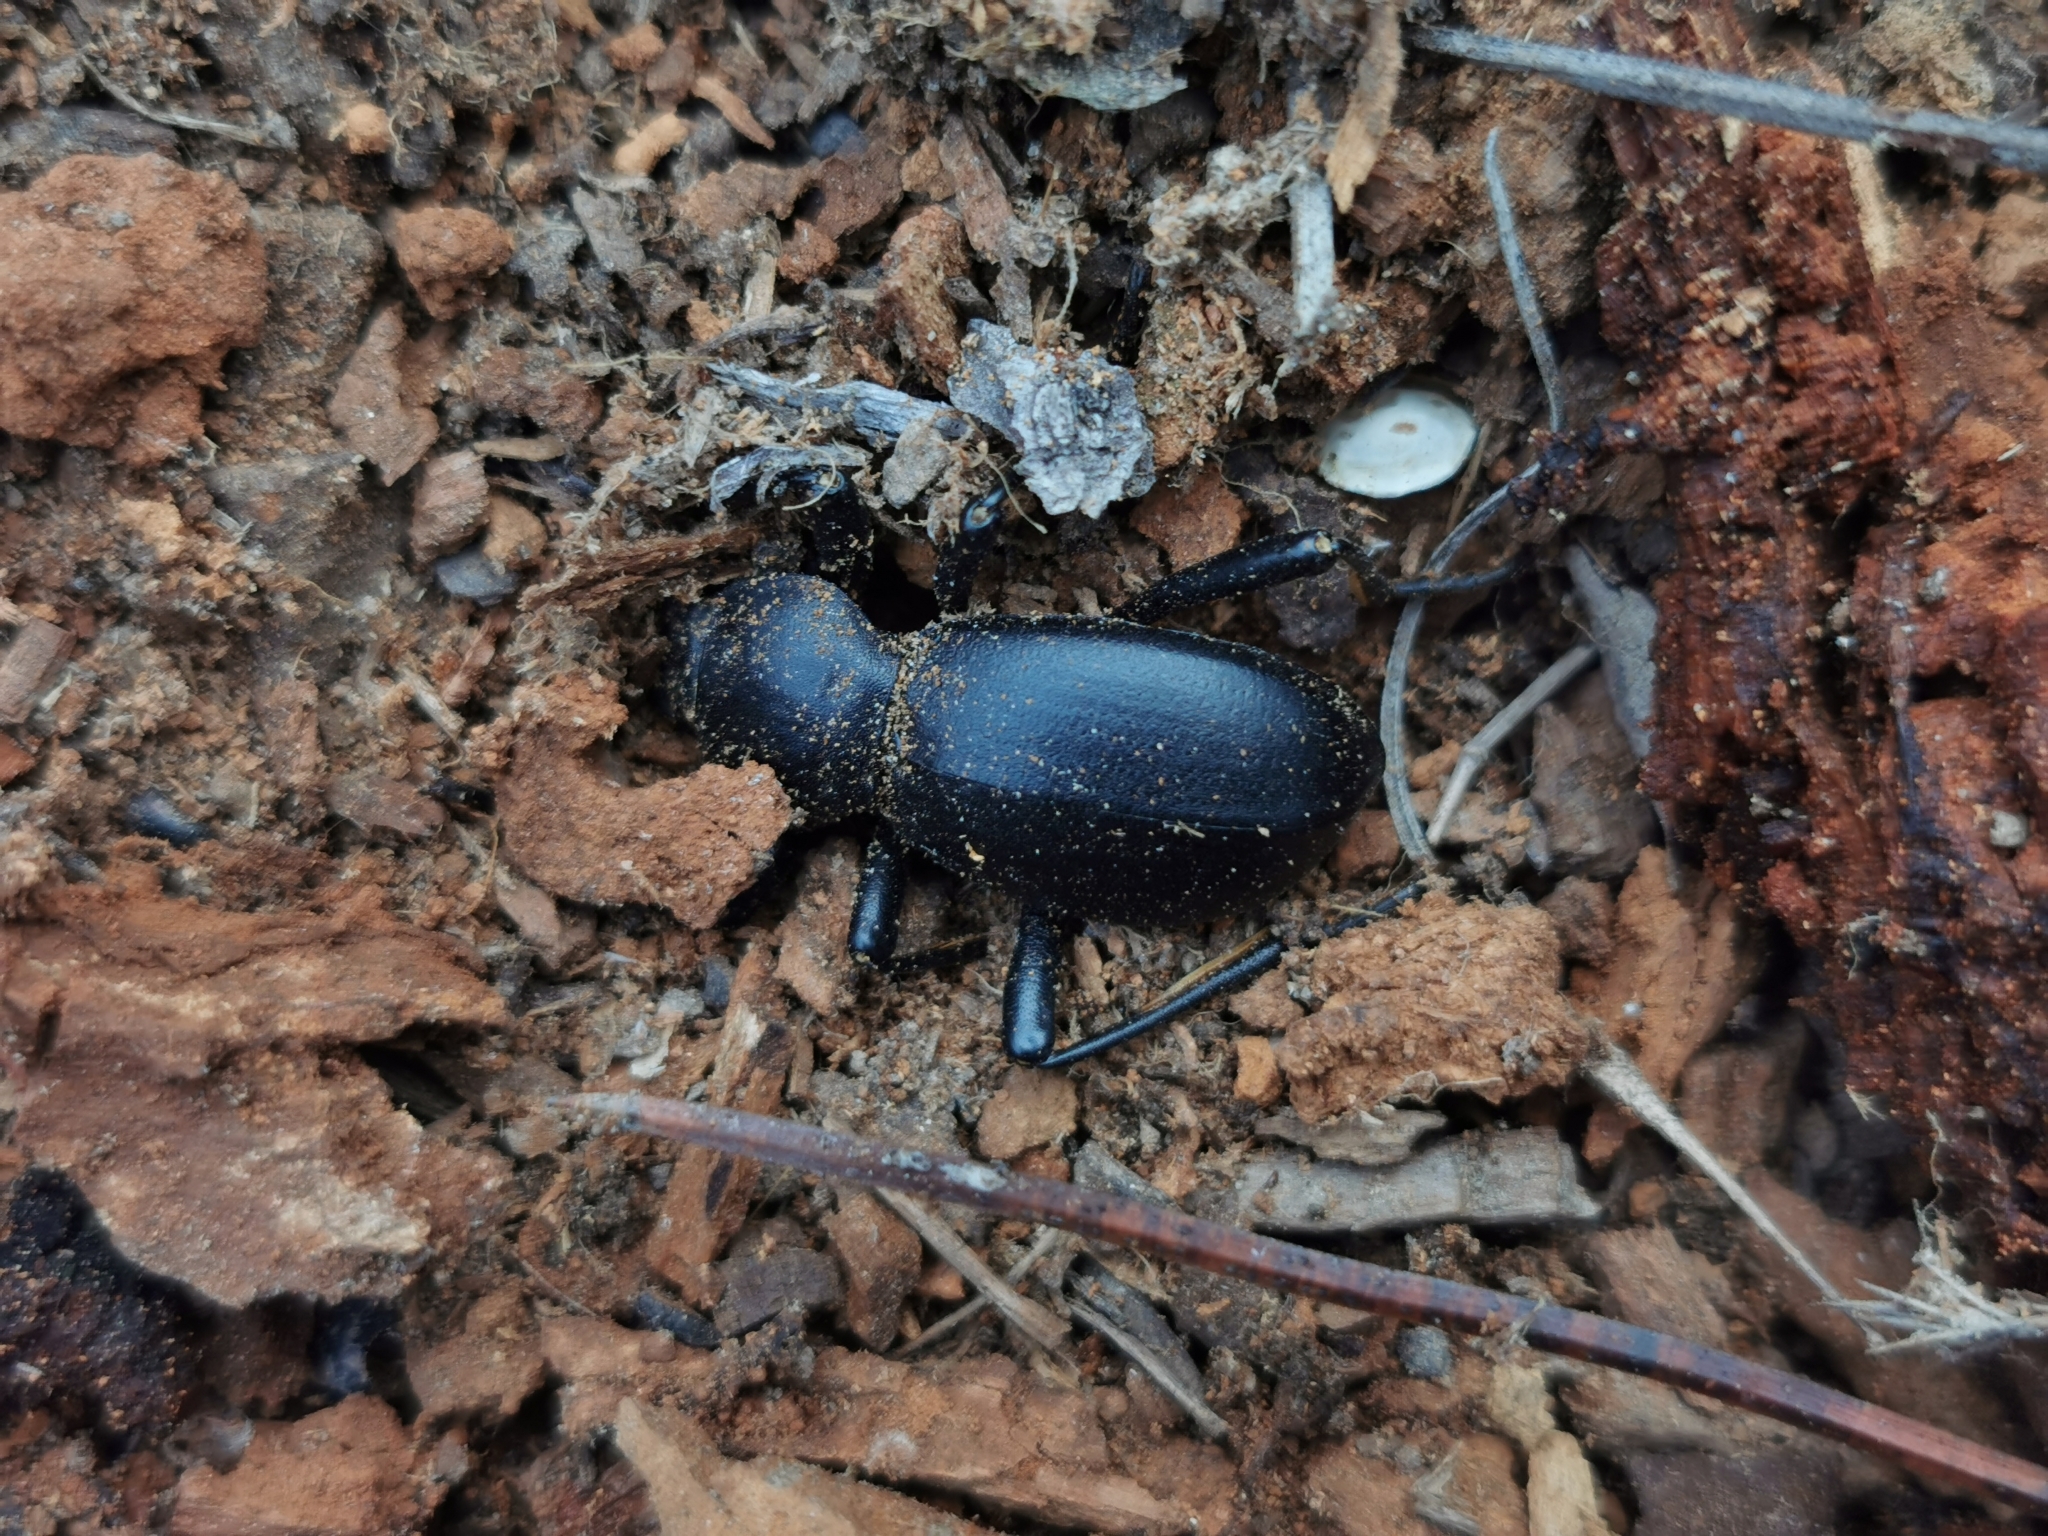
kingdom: Animalia
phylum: Arthropoda
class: Insecta
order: Coleoptera
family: Tenebrionidae
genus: Coelocnemis
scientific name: Coelocnemis dilaticollis
